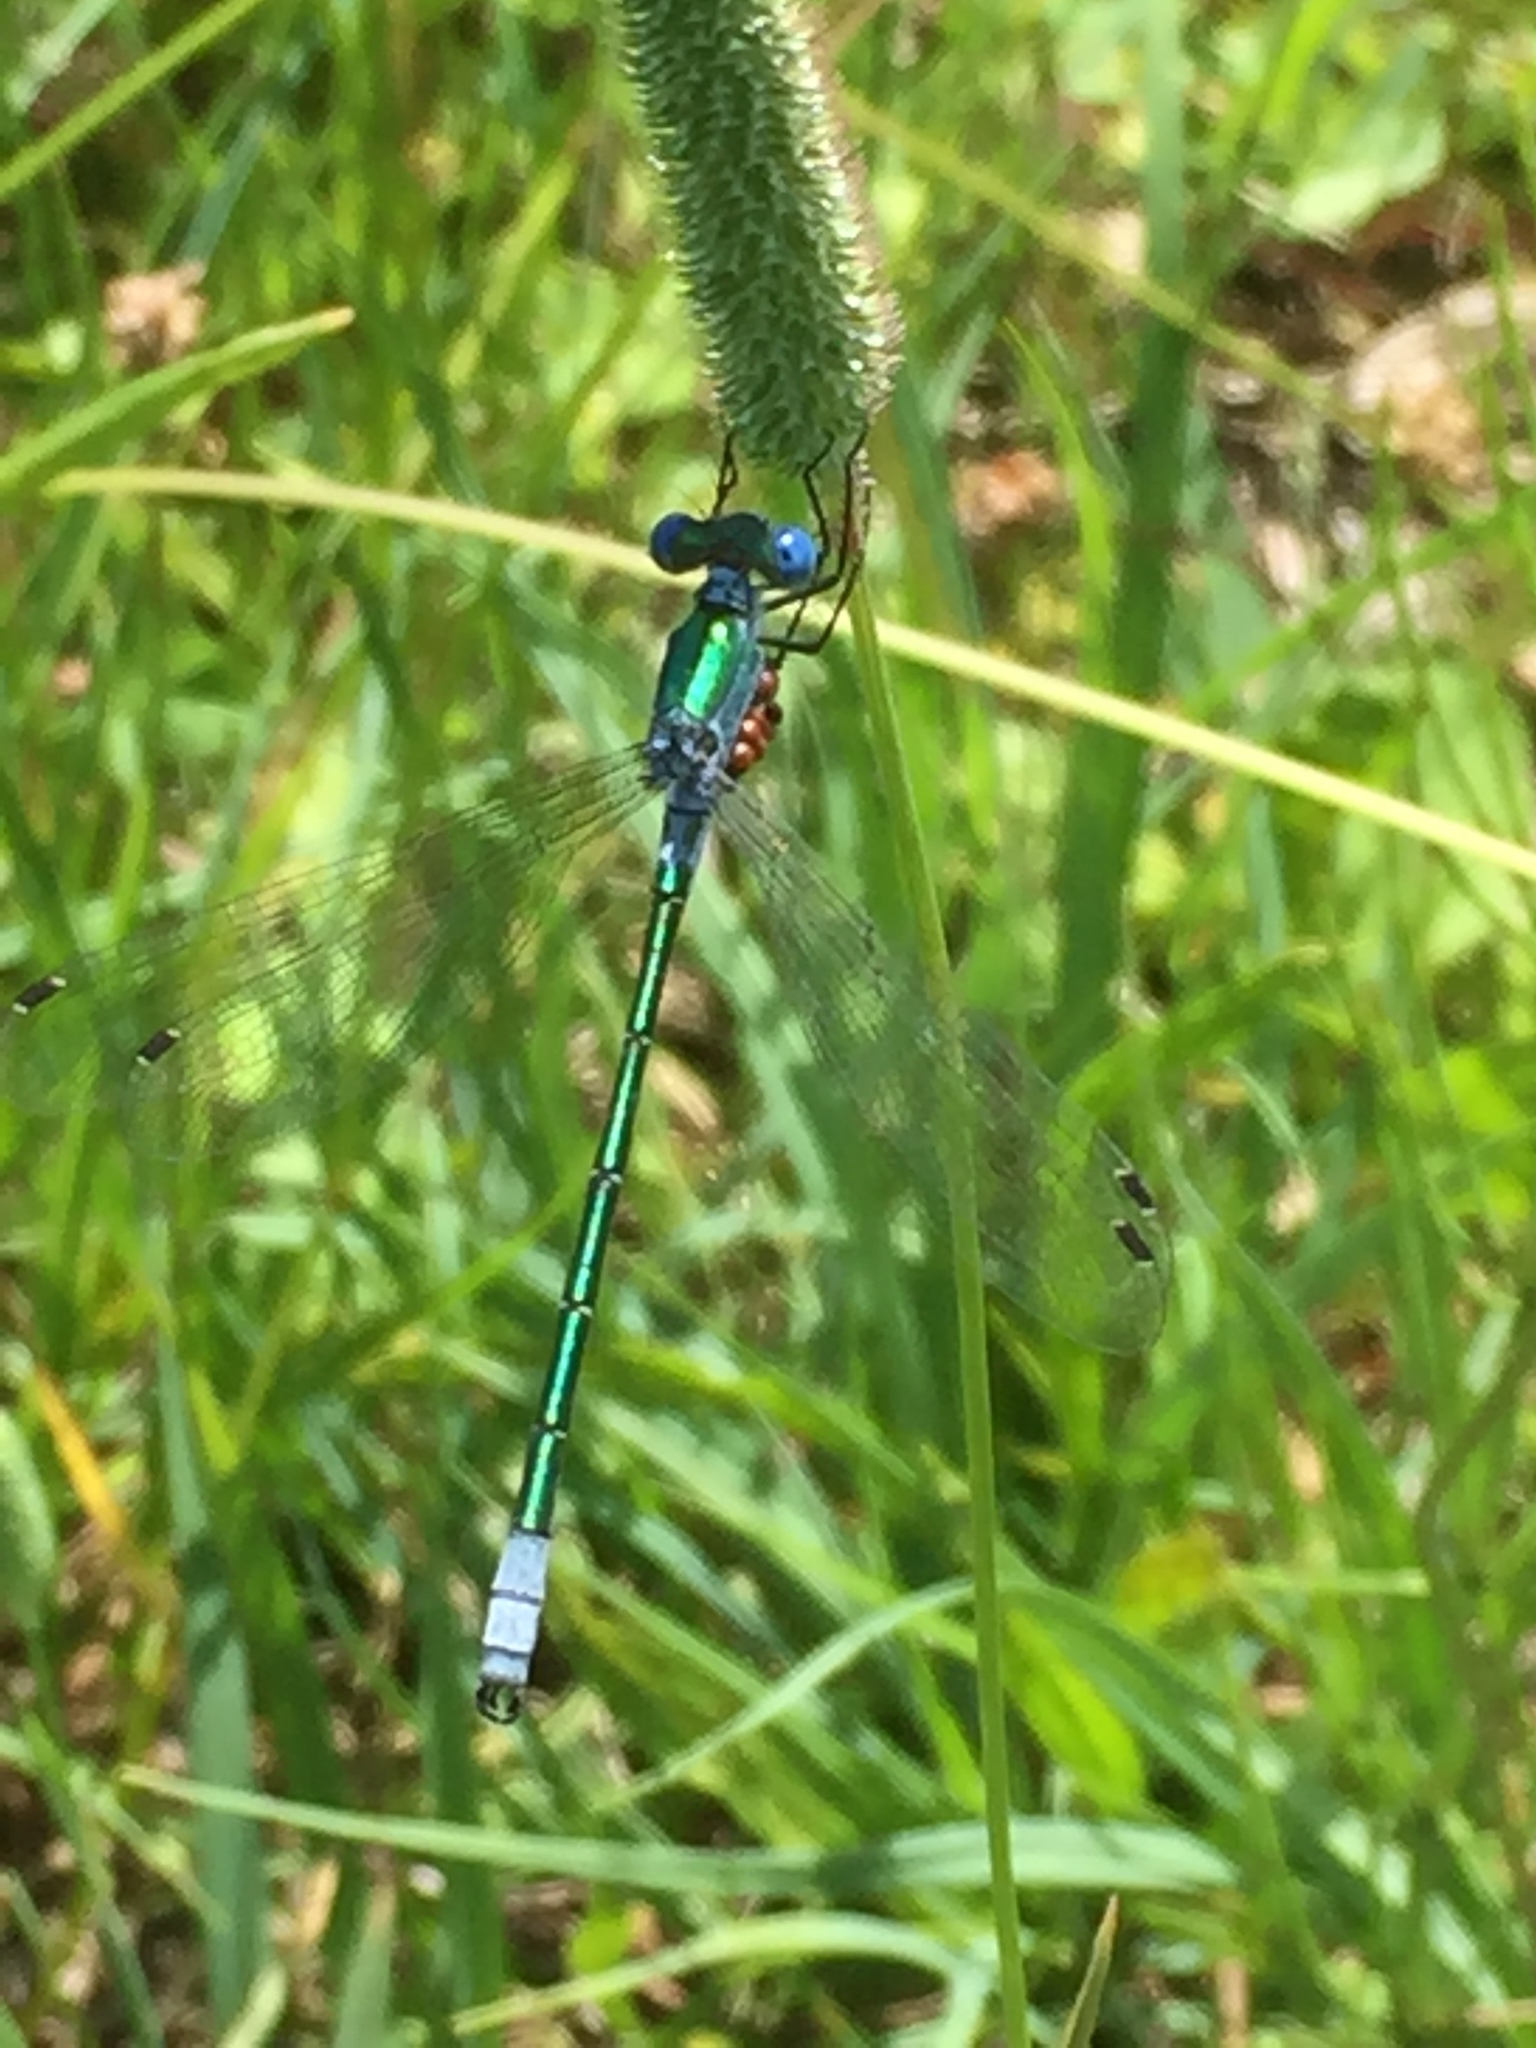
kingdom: Animalia
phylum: Arthropoda
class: Insecta
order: Odonata
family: Lestidae
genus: Lestes
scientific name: Lestes dryas
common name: Scarce emerald damselfly
